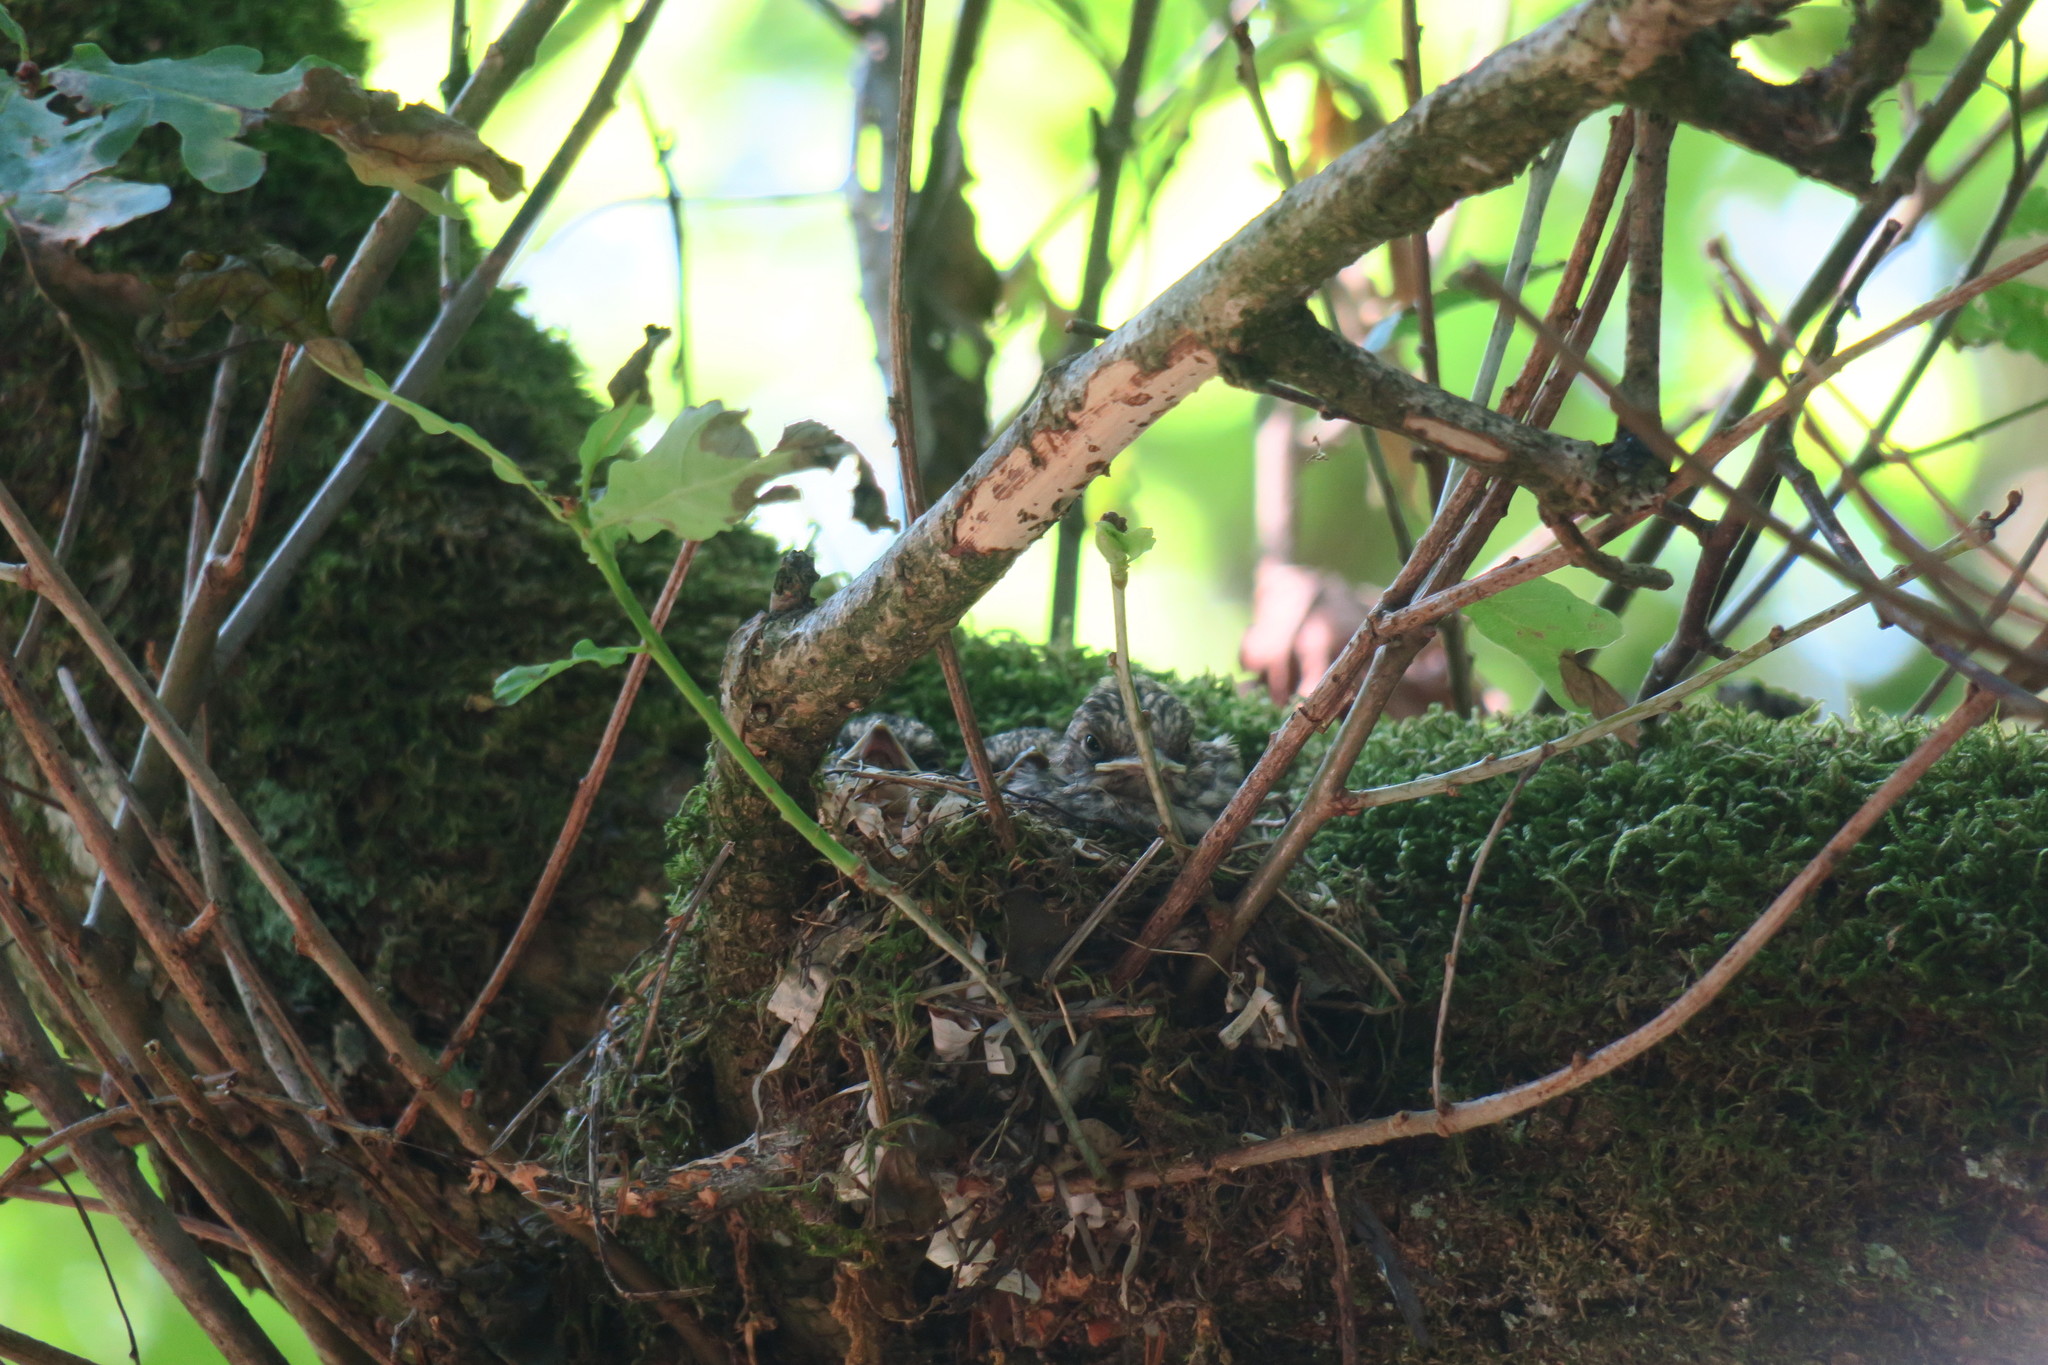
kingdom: Animalia
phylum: Chordata
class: Aves
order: Passeriformes
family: Muscicapidae
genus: Muscicapa
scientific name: Muscicapa striata
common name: Spotted flycatcher
